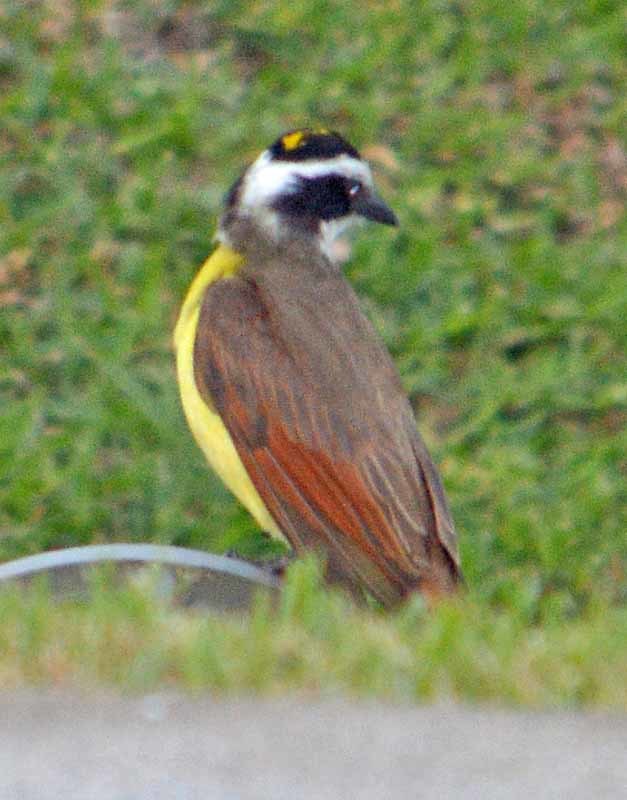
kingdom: Animalia
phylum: Chordata
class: Aves
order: Passeriformes
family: Tyrannidae
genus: Pitangus
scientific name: Pitangus sulphuratus
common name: Great kiskadee
